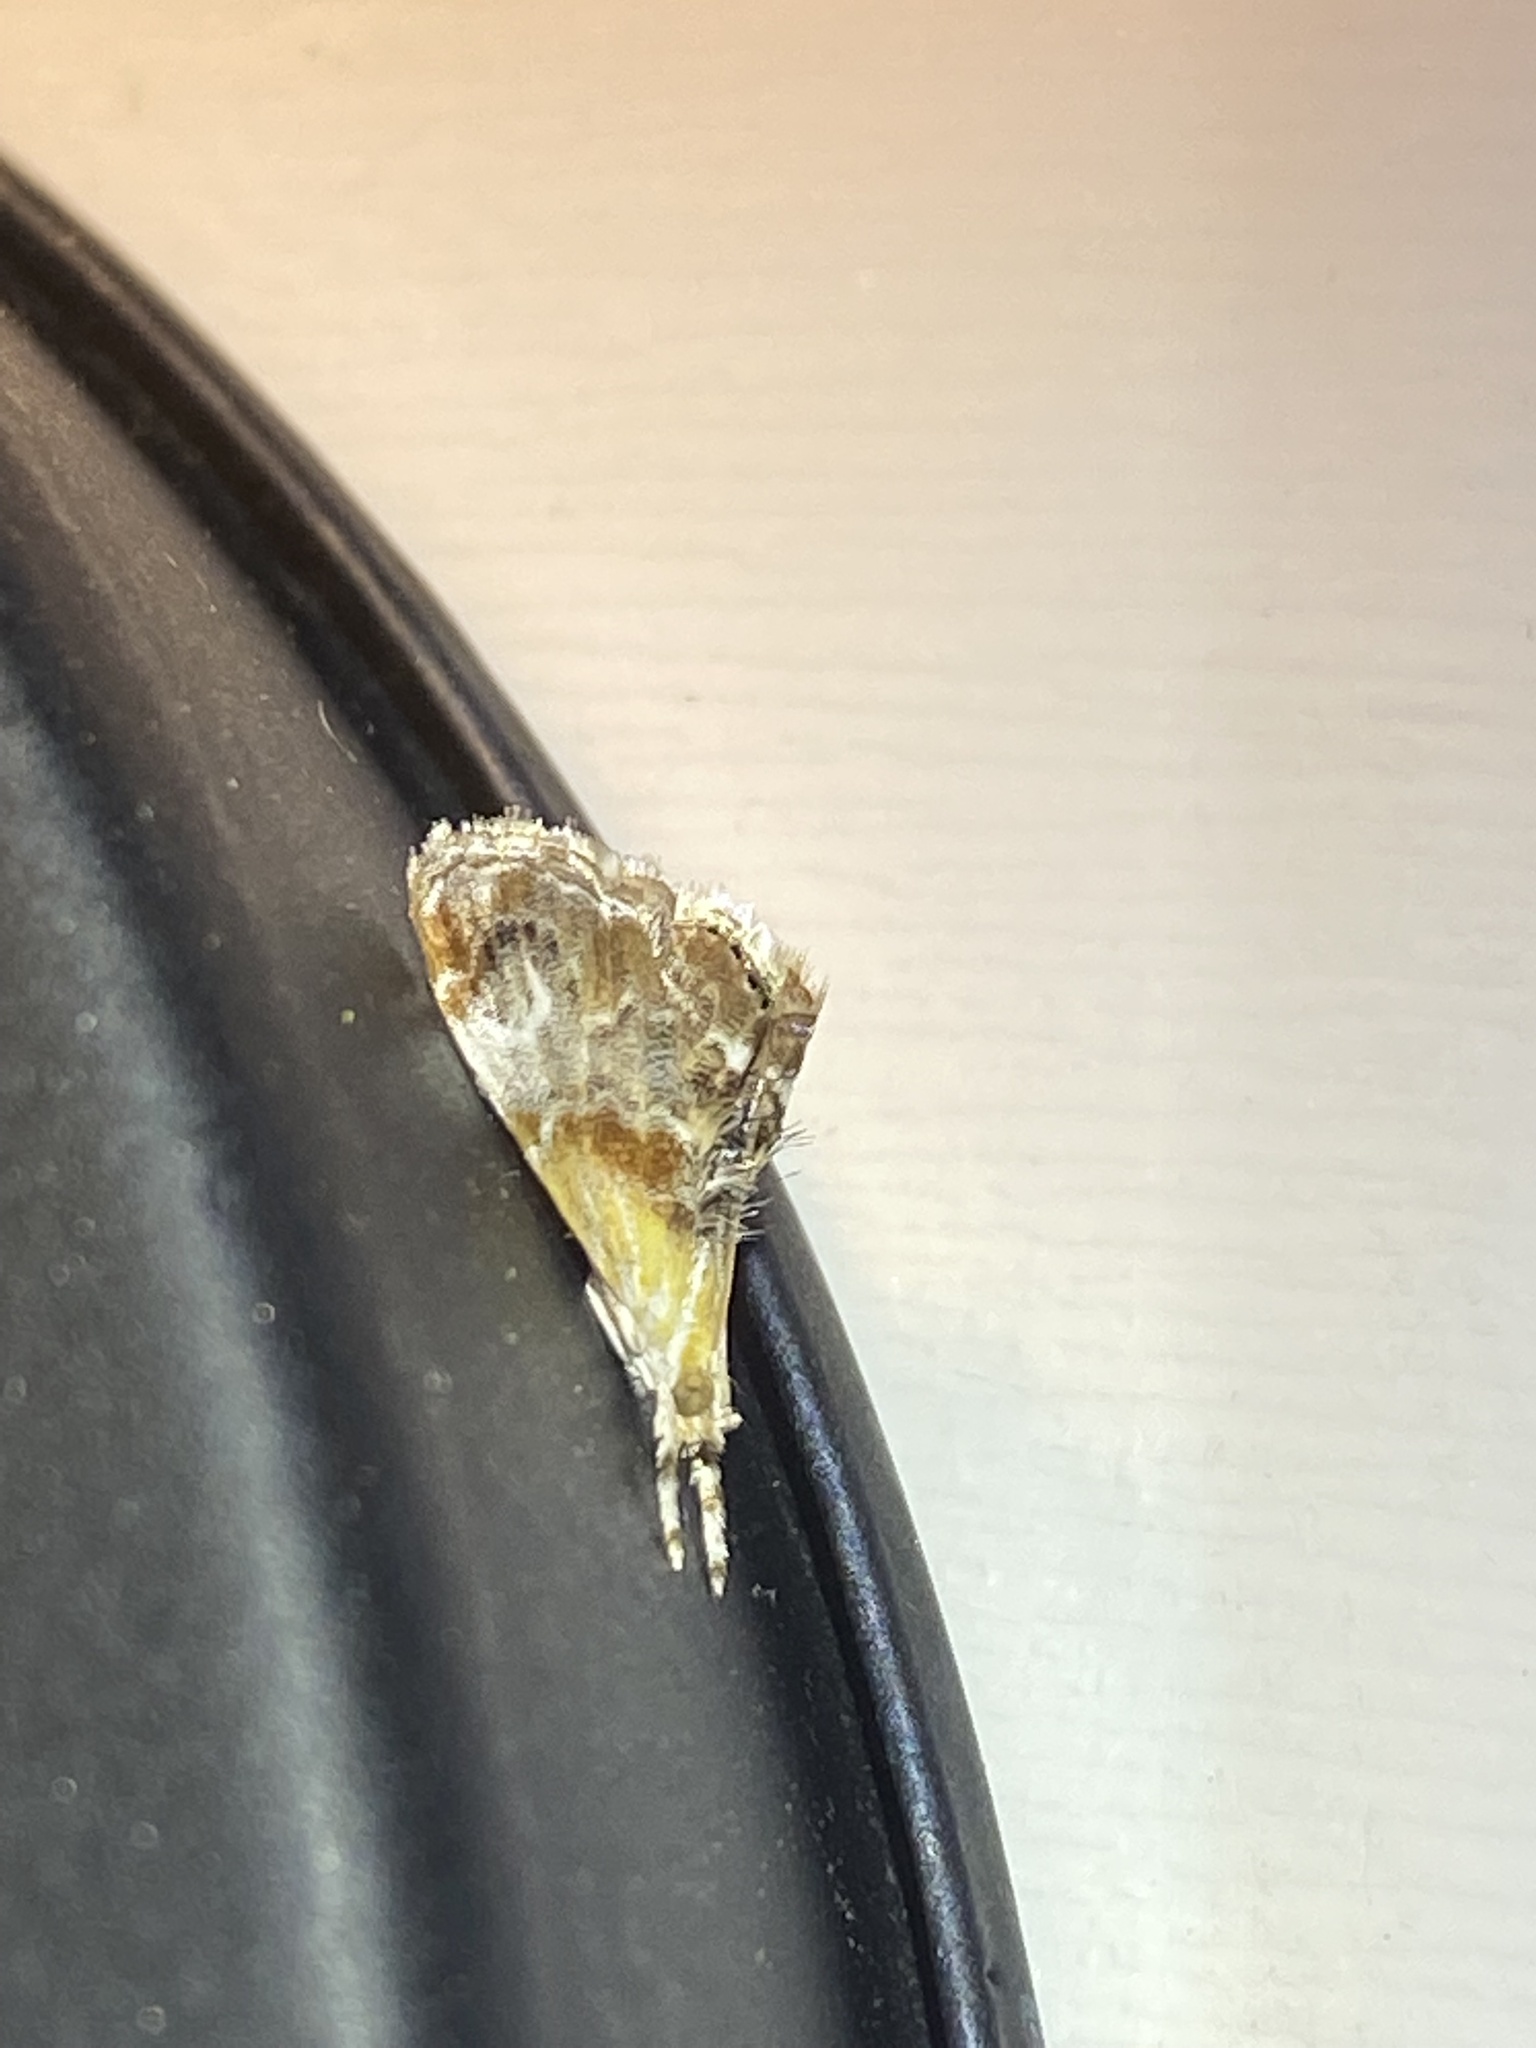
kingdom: Animalia
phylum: Arthropoda
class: Insecta
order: Lepidoptera
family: Crambidae
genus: Dicymolomia
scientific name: Dicymolomia julianalis
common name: Julia's dicymolomia moth
